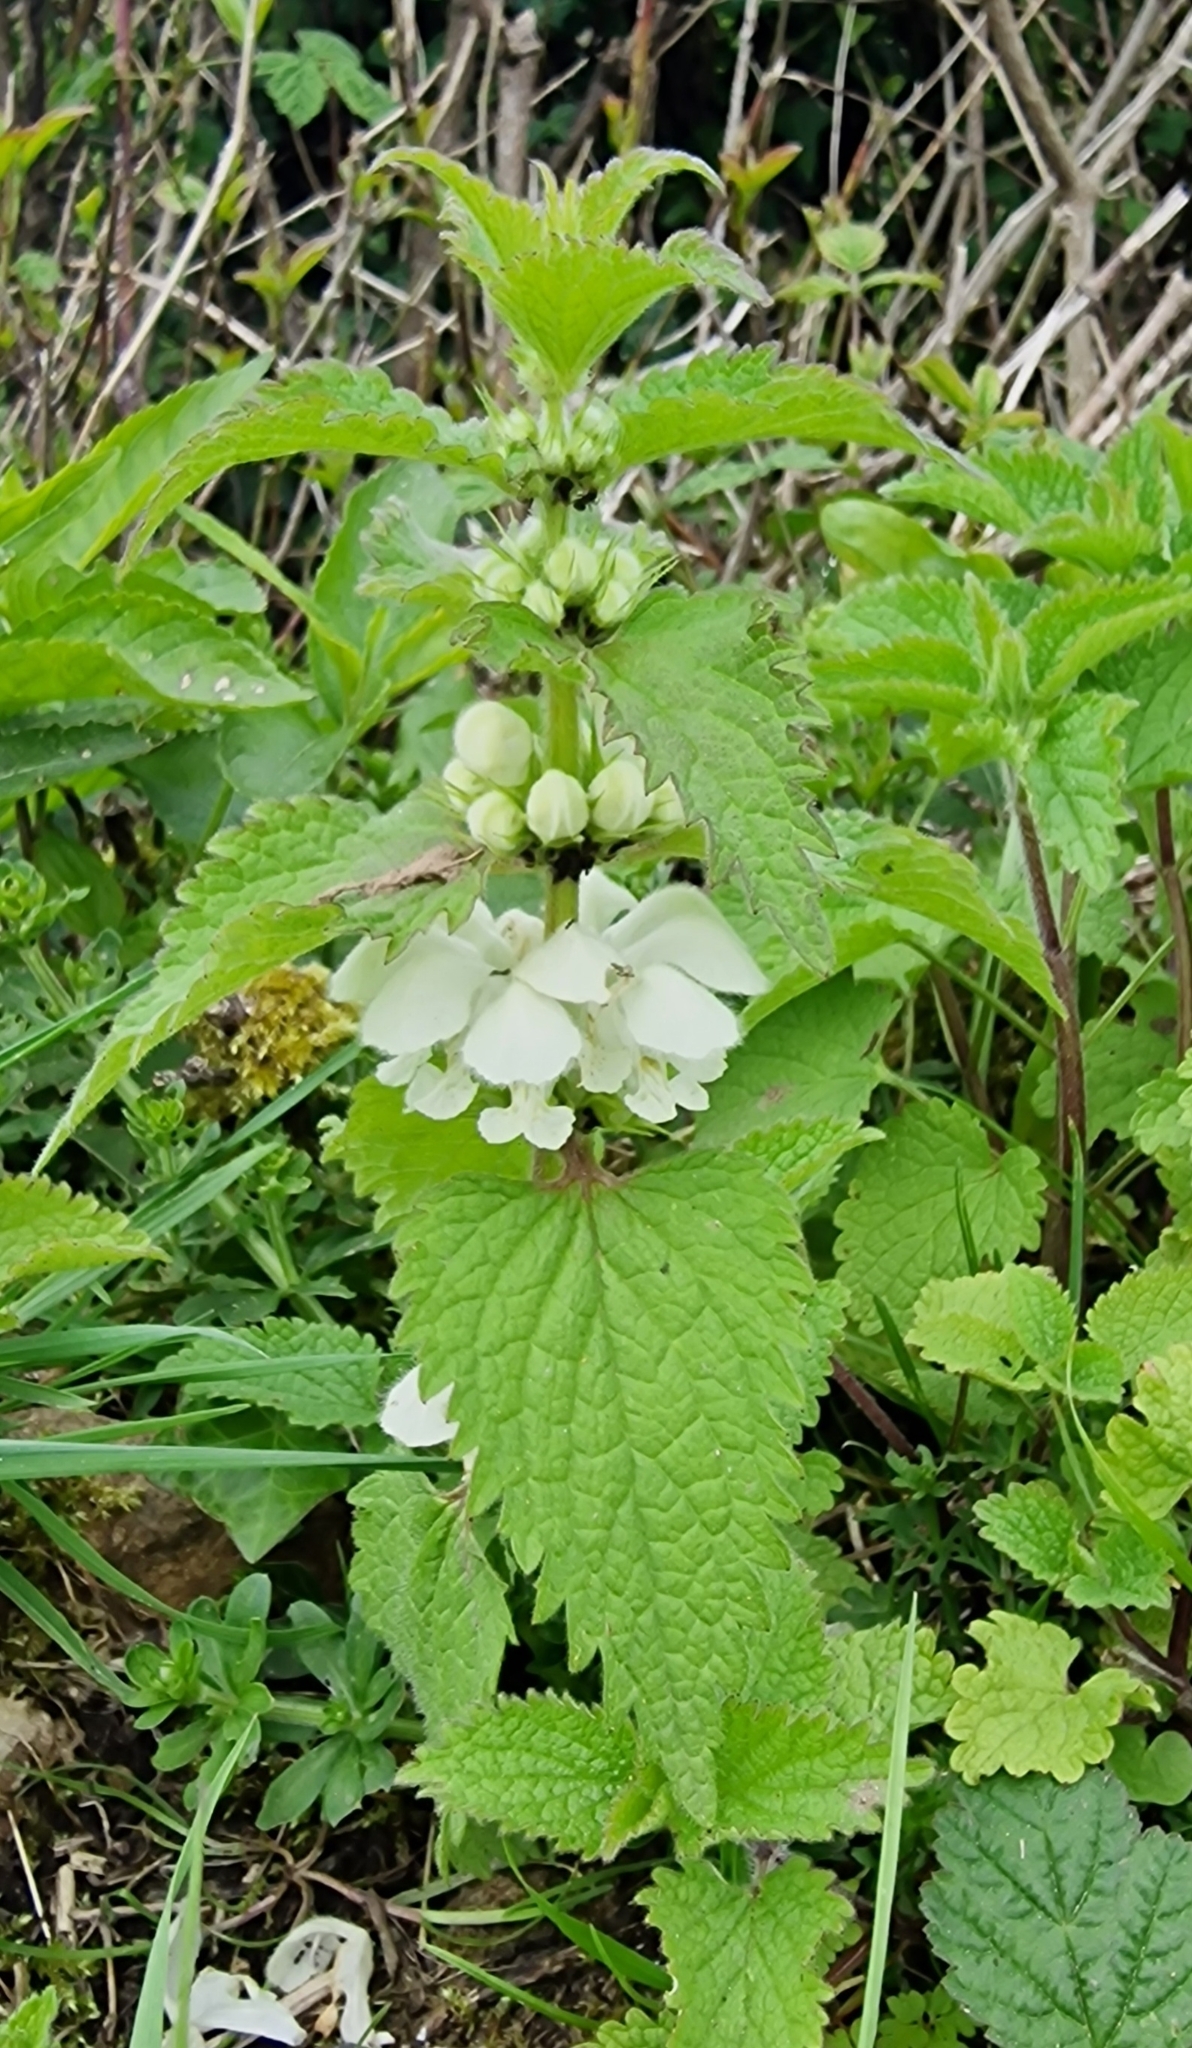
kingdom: Plantae
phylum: Tracheophyta
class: Magnoliopsida
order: Lamiales
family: Lamiaceae
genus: Lamium
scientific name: Lamium album
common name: White dead-nettle
